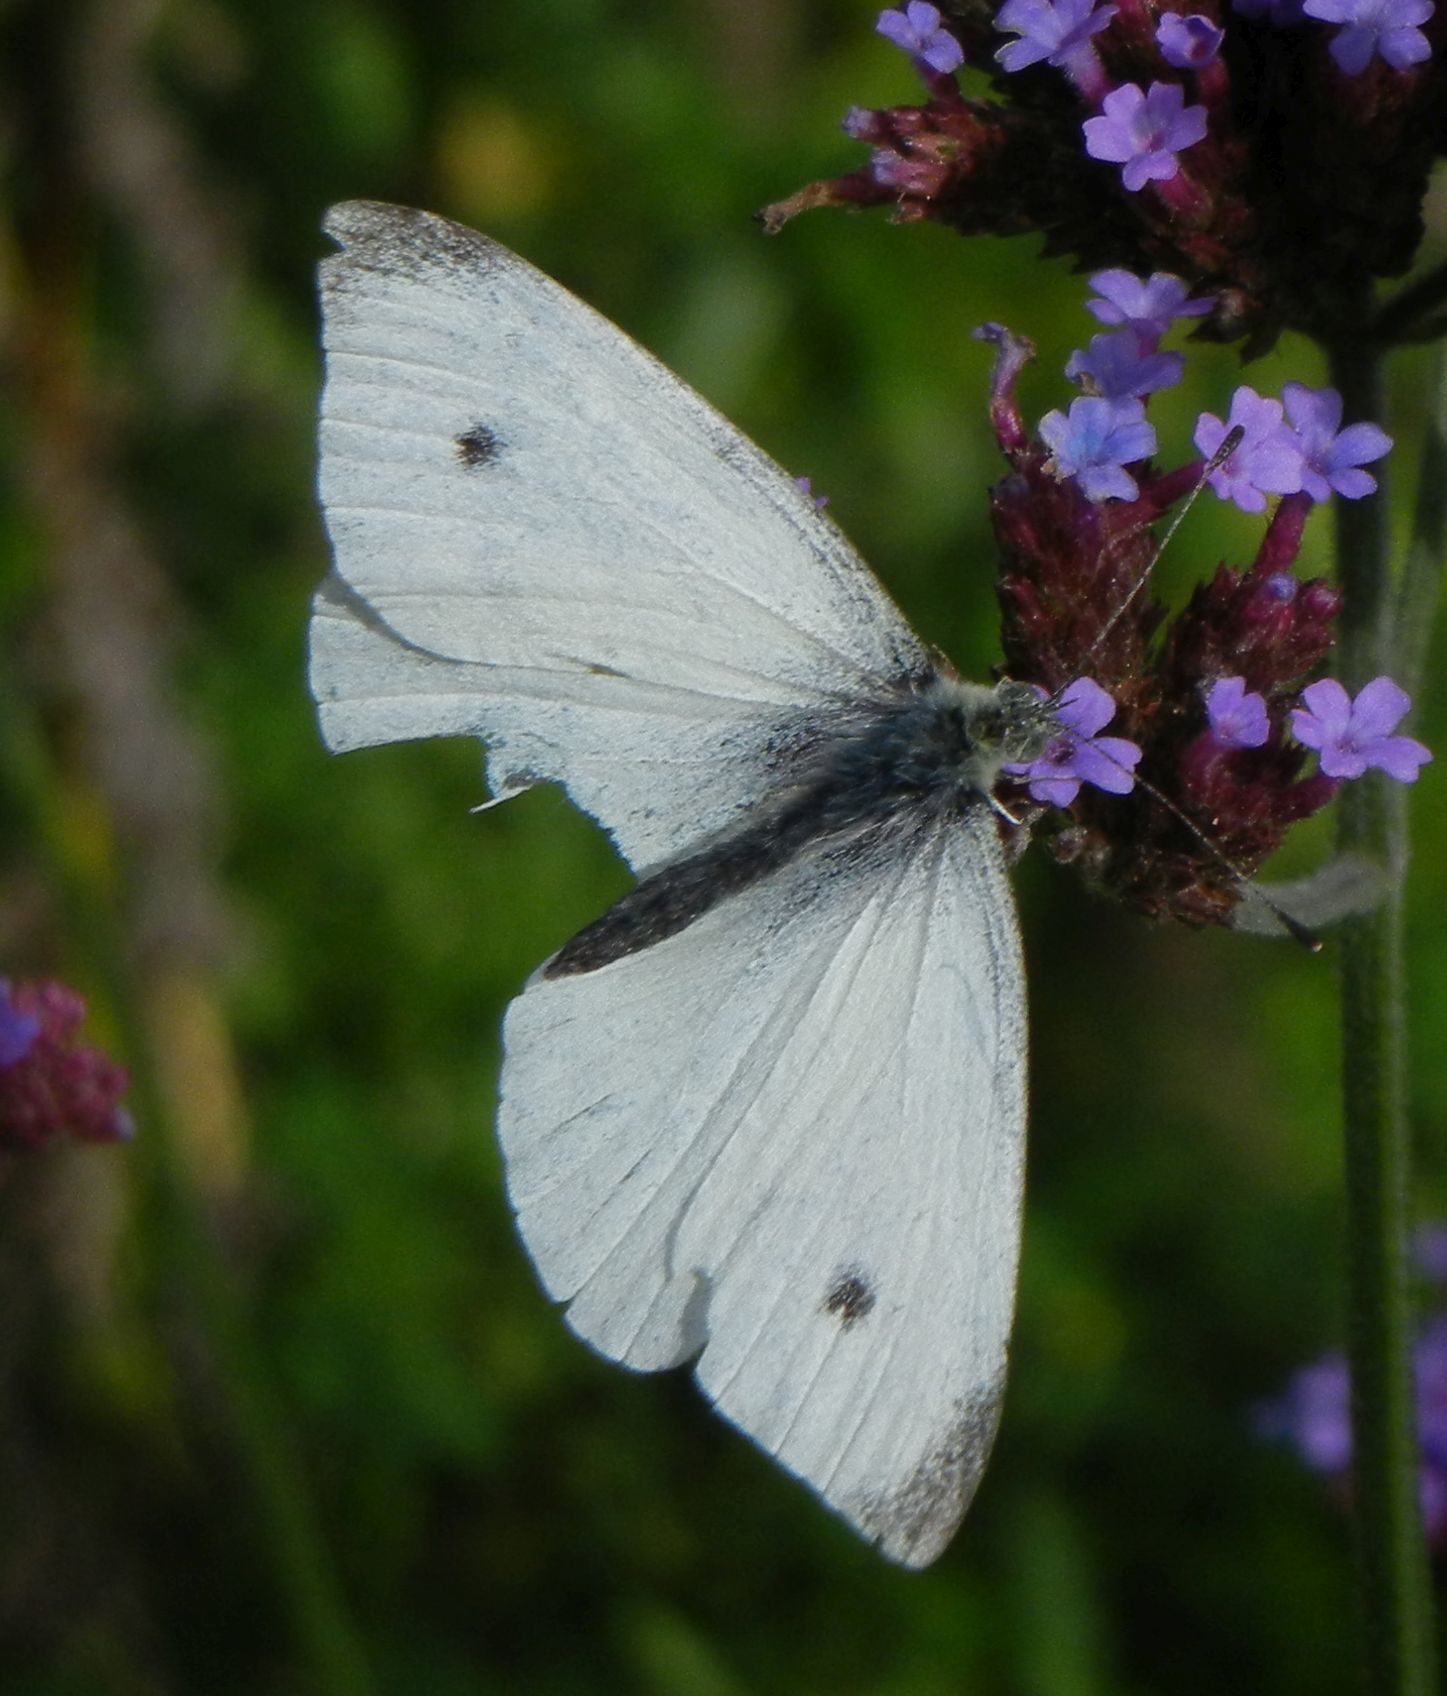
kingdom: Animalia
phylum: Arthropoda
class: Insecta
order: Lepidoptera
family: Pieridae
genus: Pieris
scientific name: Pieris rapae
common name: Small white
